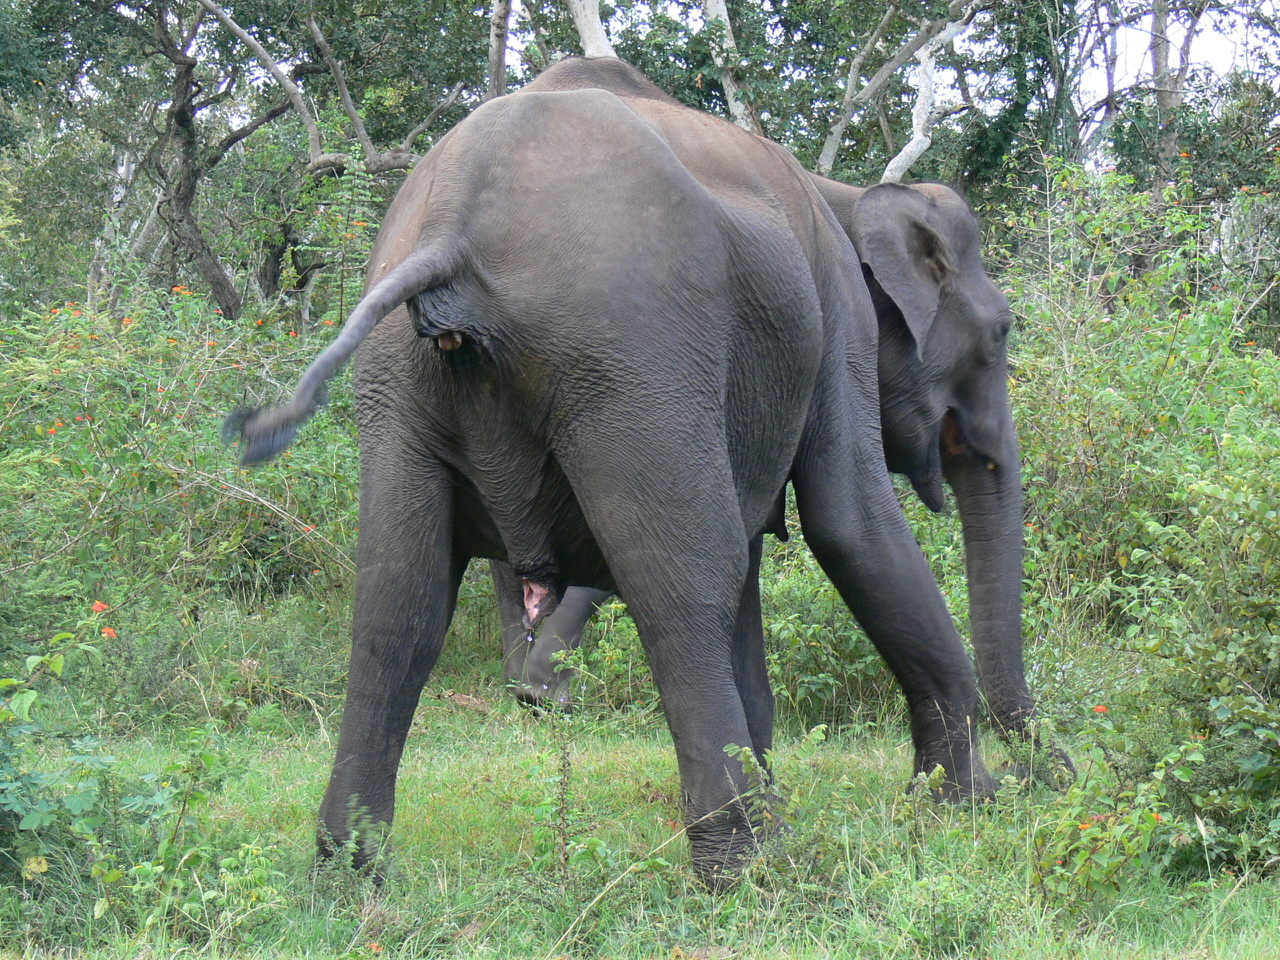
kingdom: Animalia
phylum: Chordata
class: Mammalia
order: Proboscidea
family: Elephantidae
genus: Elephas
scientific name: Elephas maximus
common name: Asian elephant
